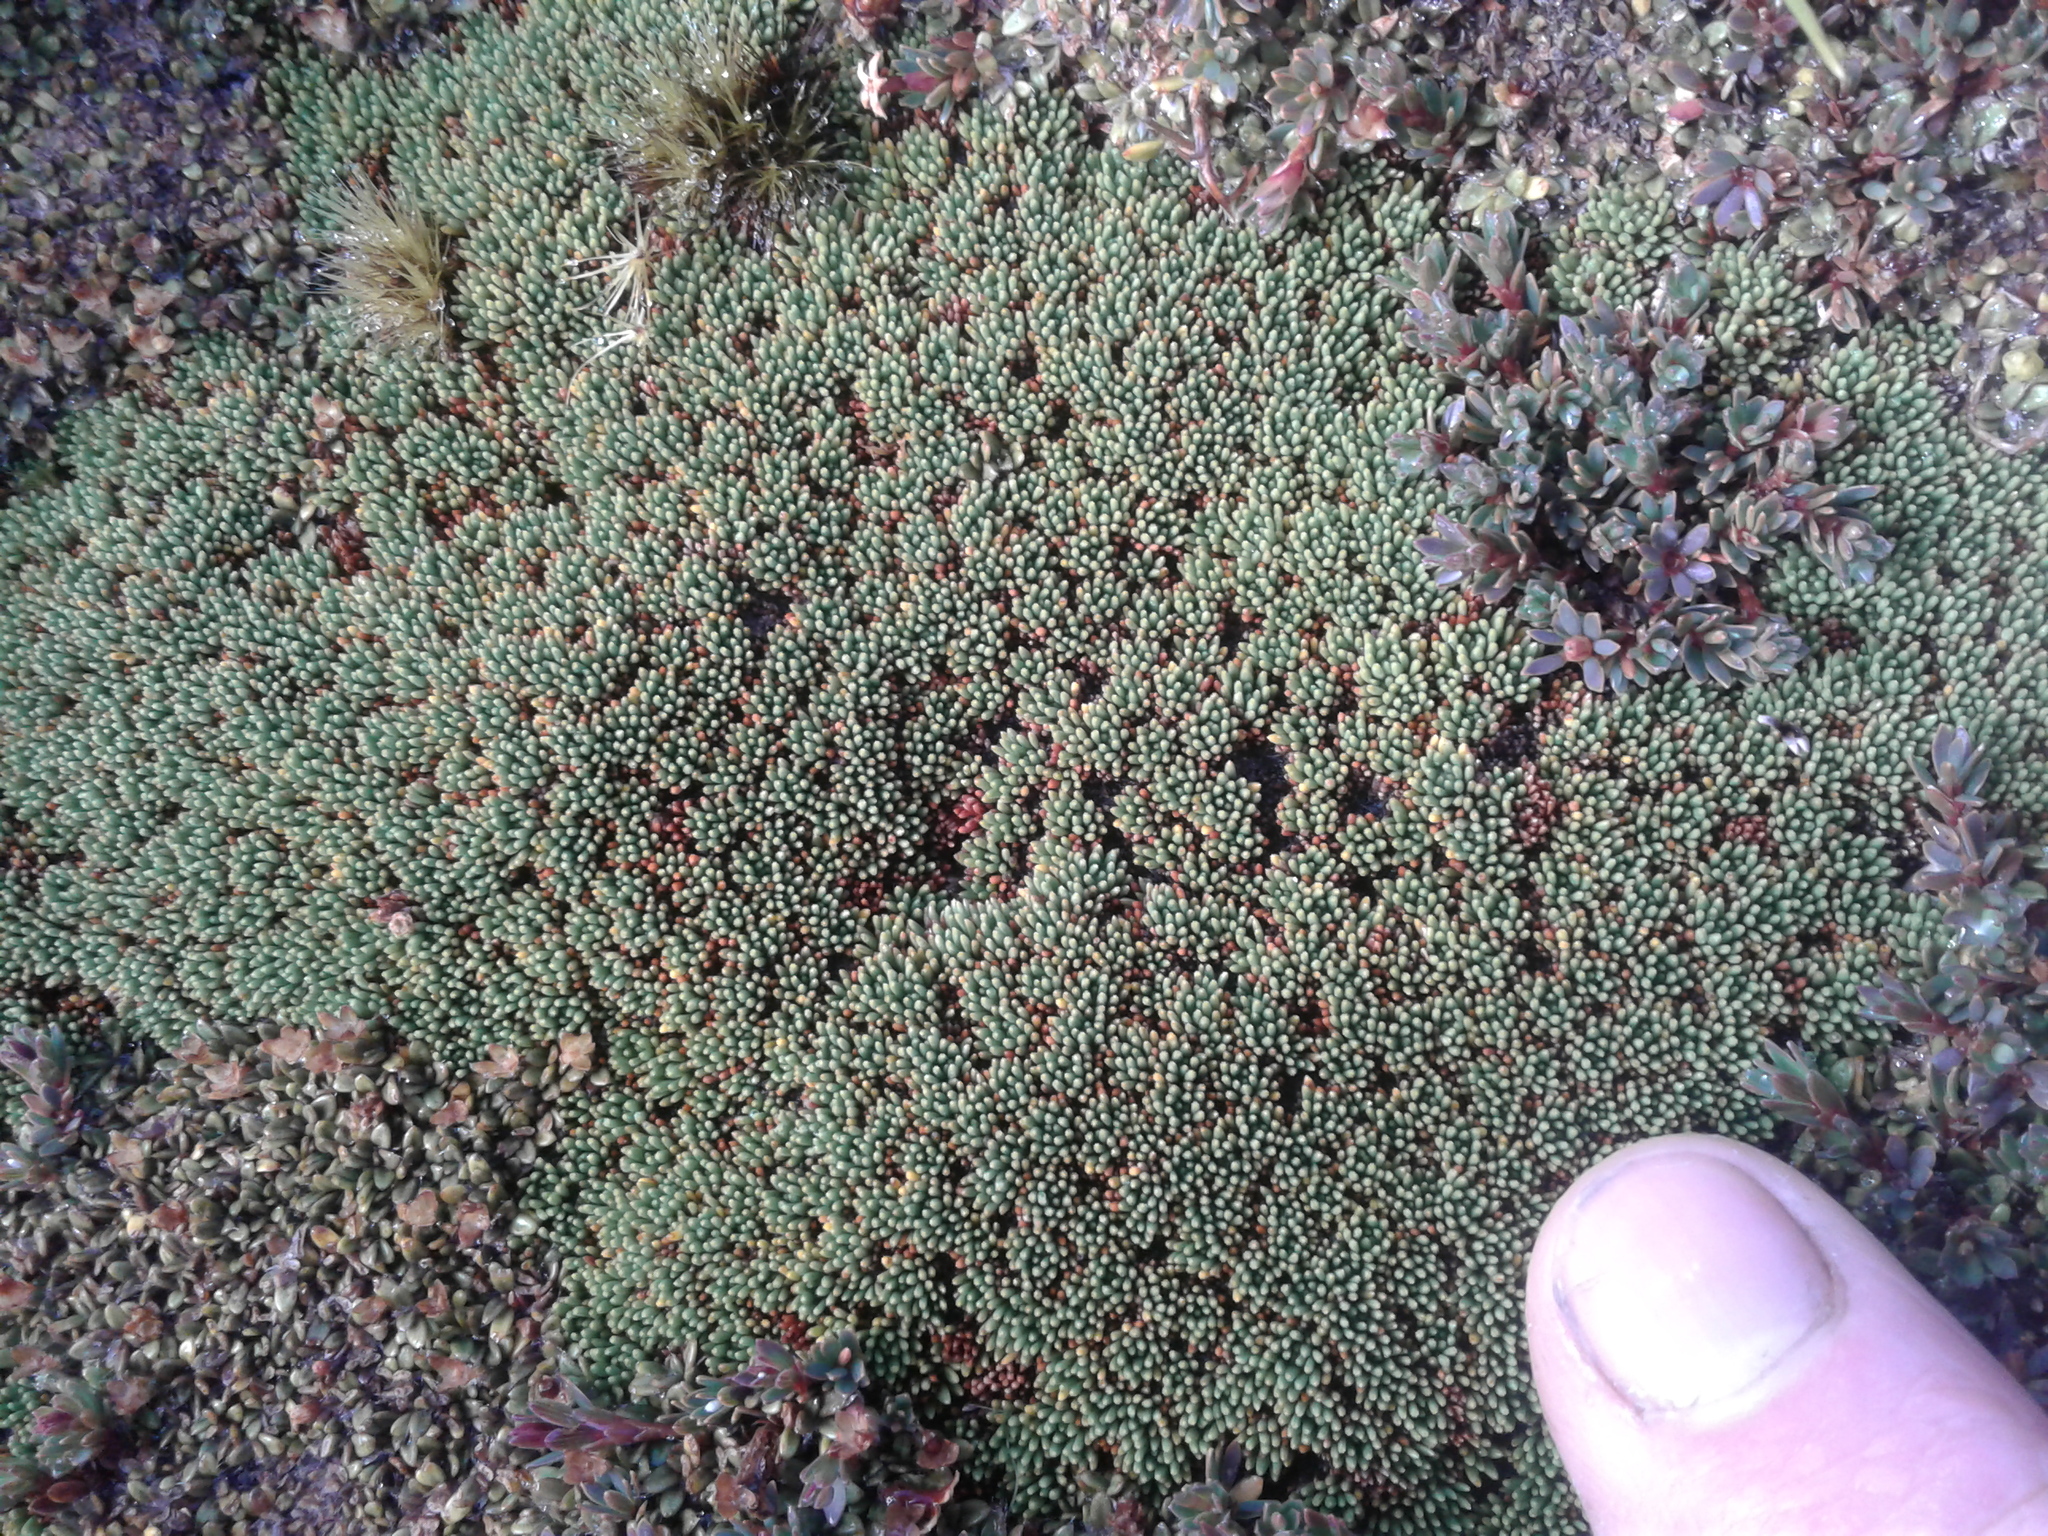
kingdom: Plantae
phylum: Tracheophyta
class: Magnoliopsida
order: Asterales
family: Stylidiaceae
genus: Donatia
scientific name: Donatia novae-zelandiae
